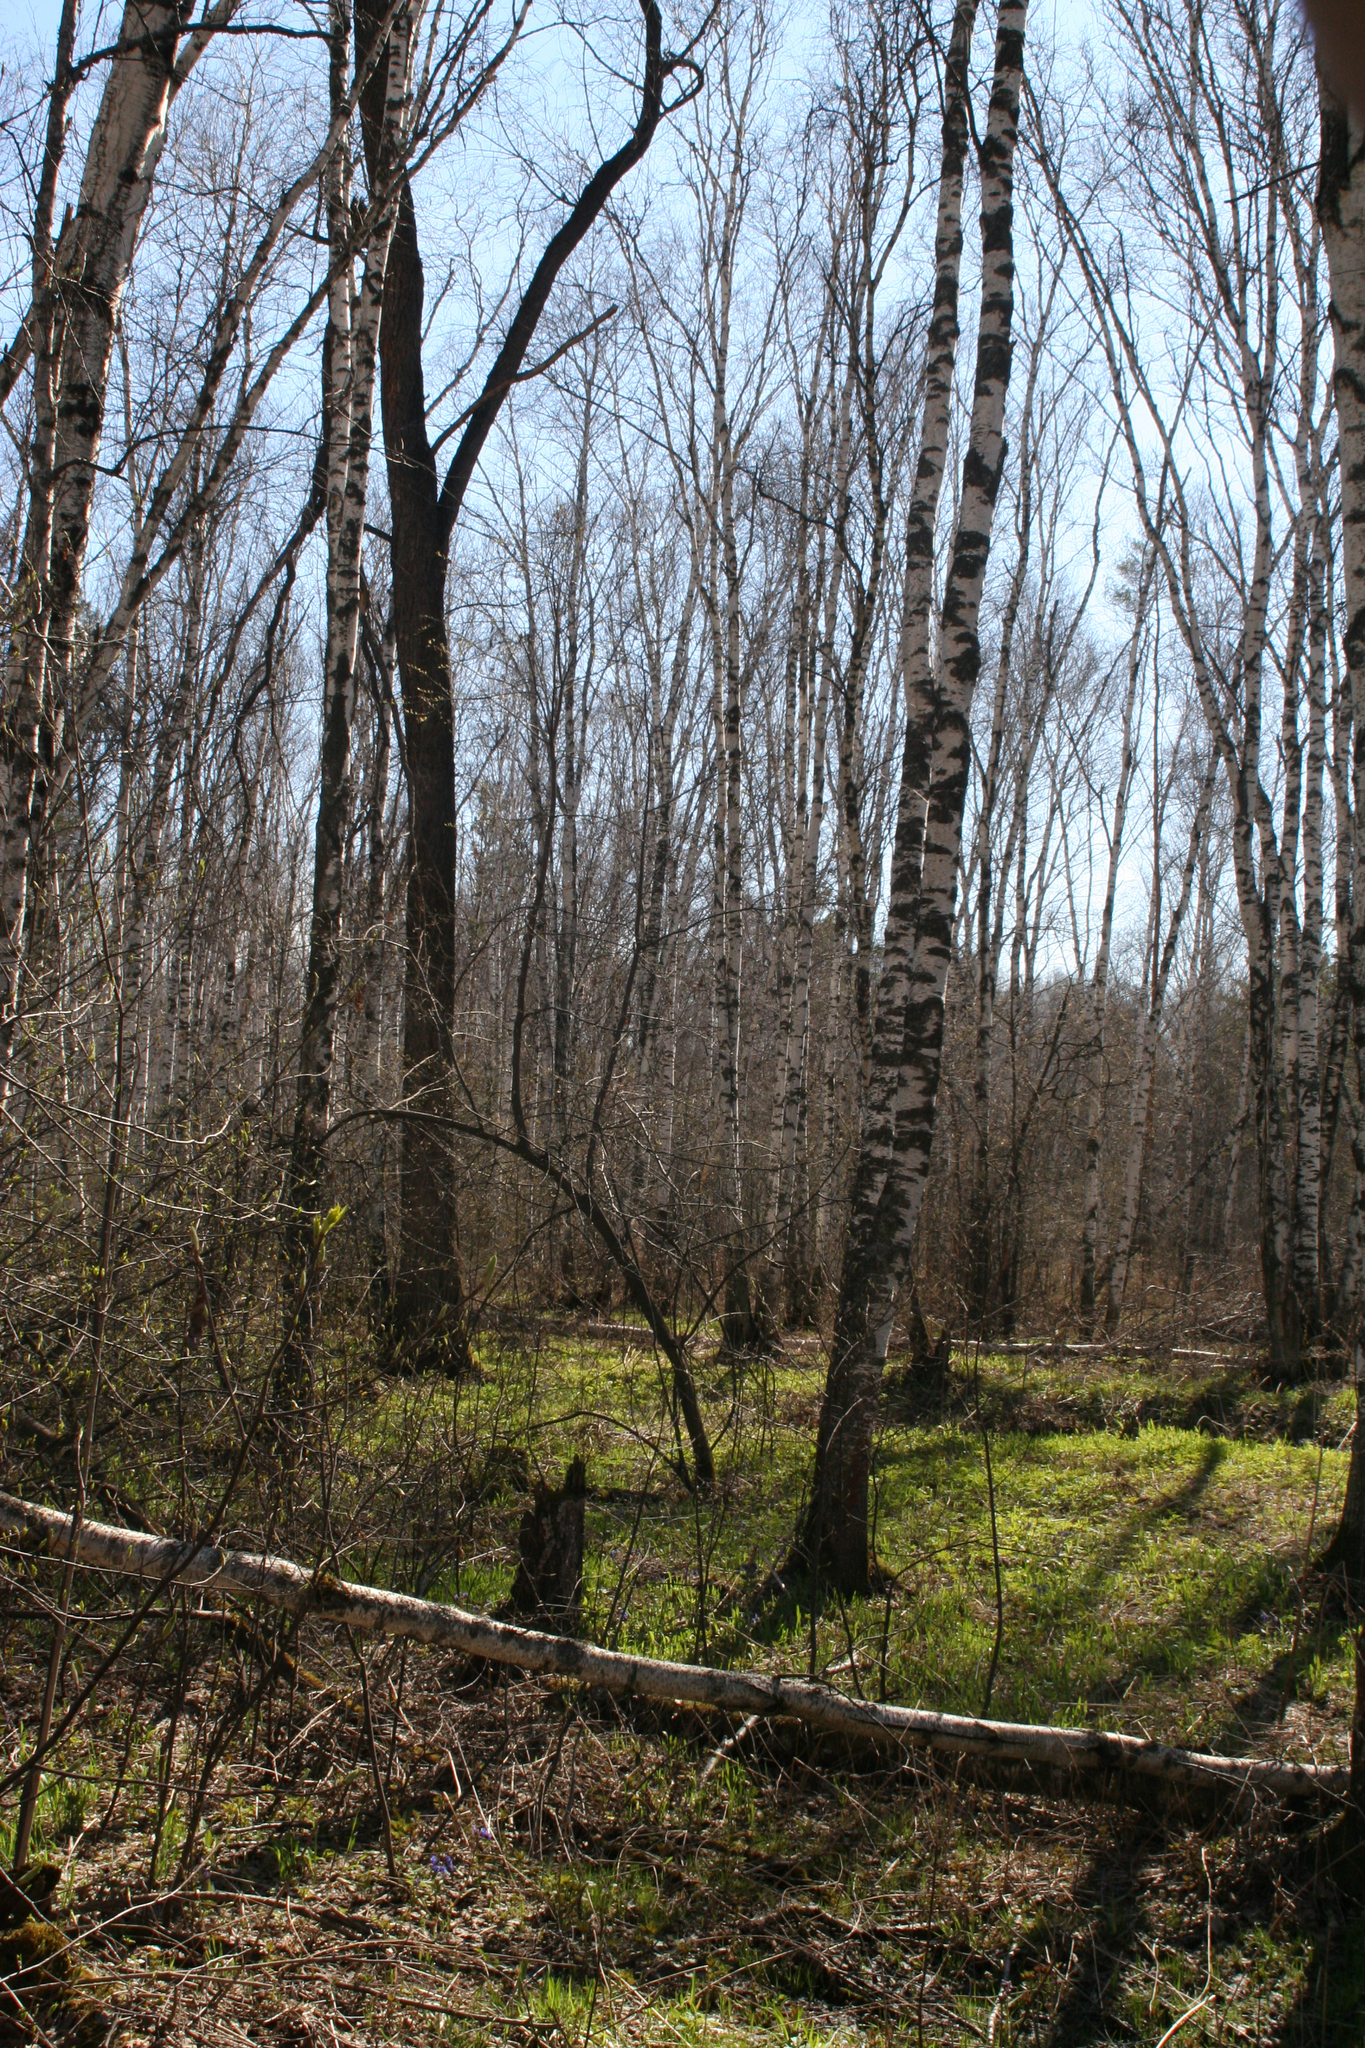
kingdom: Plantae
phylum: Tracheophyta
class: Magnoliopsida
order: Fagales
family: Betulaceae
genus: Betula
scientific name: Betula pendula
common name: Silver birch
